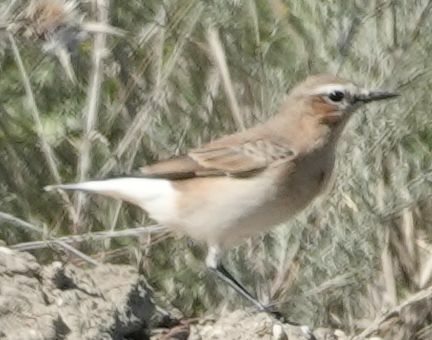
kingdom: Animalia
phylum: Chordata
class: Aves
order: Passeriformes
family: Muscicapidae
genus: Oenanthe
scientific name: Oenanthe oenanthe
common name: Northern wheatear
